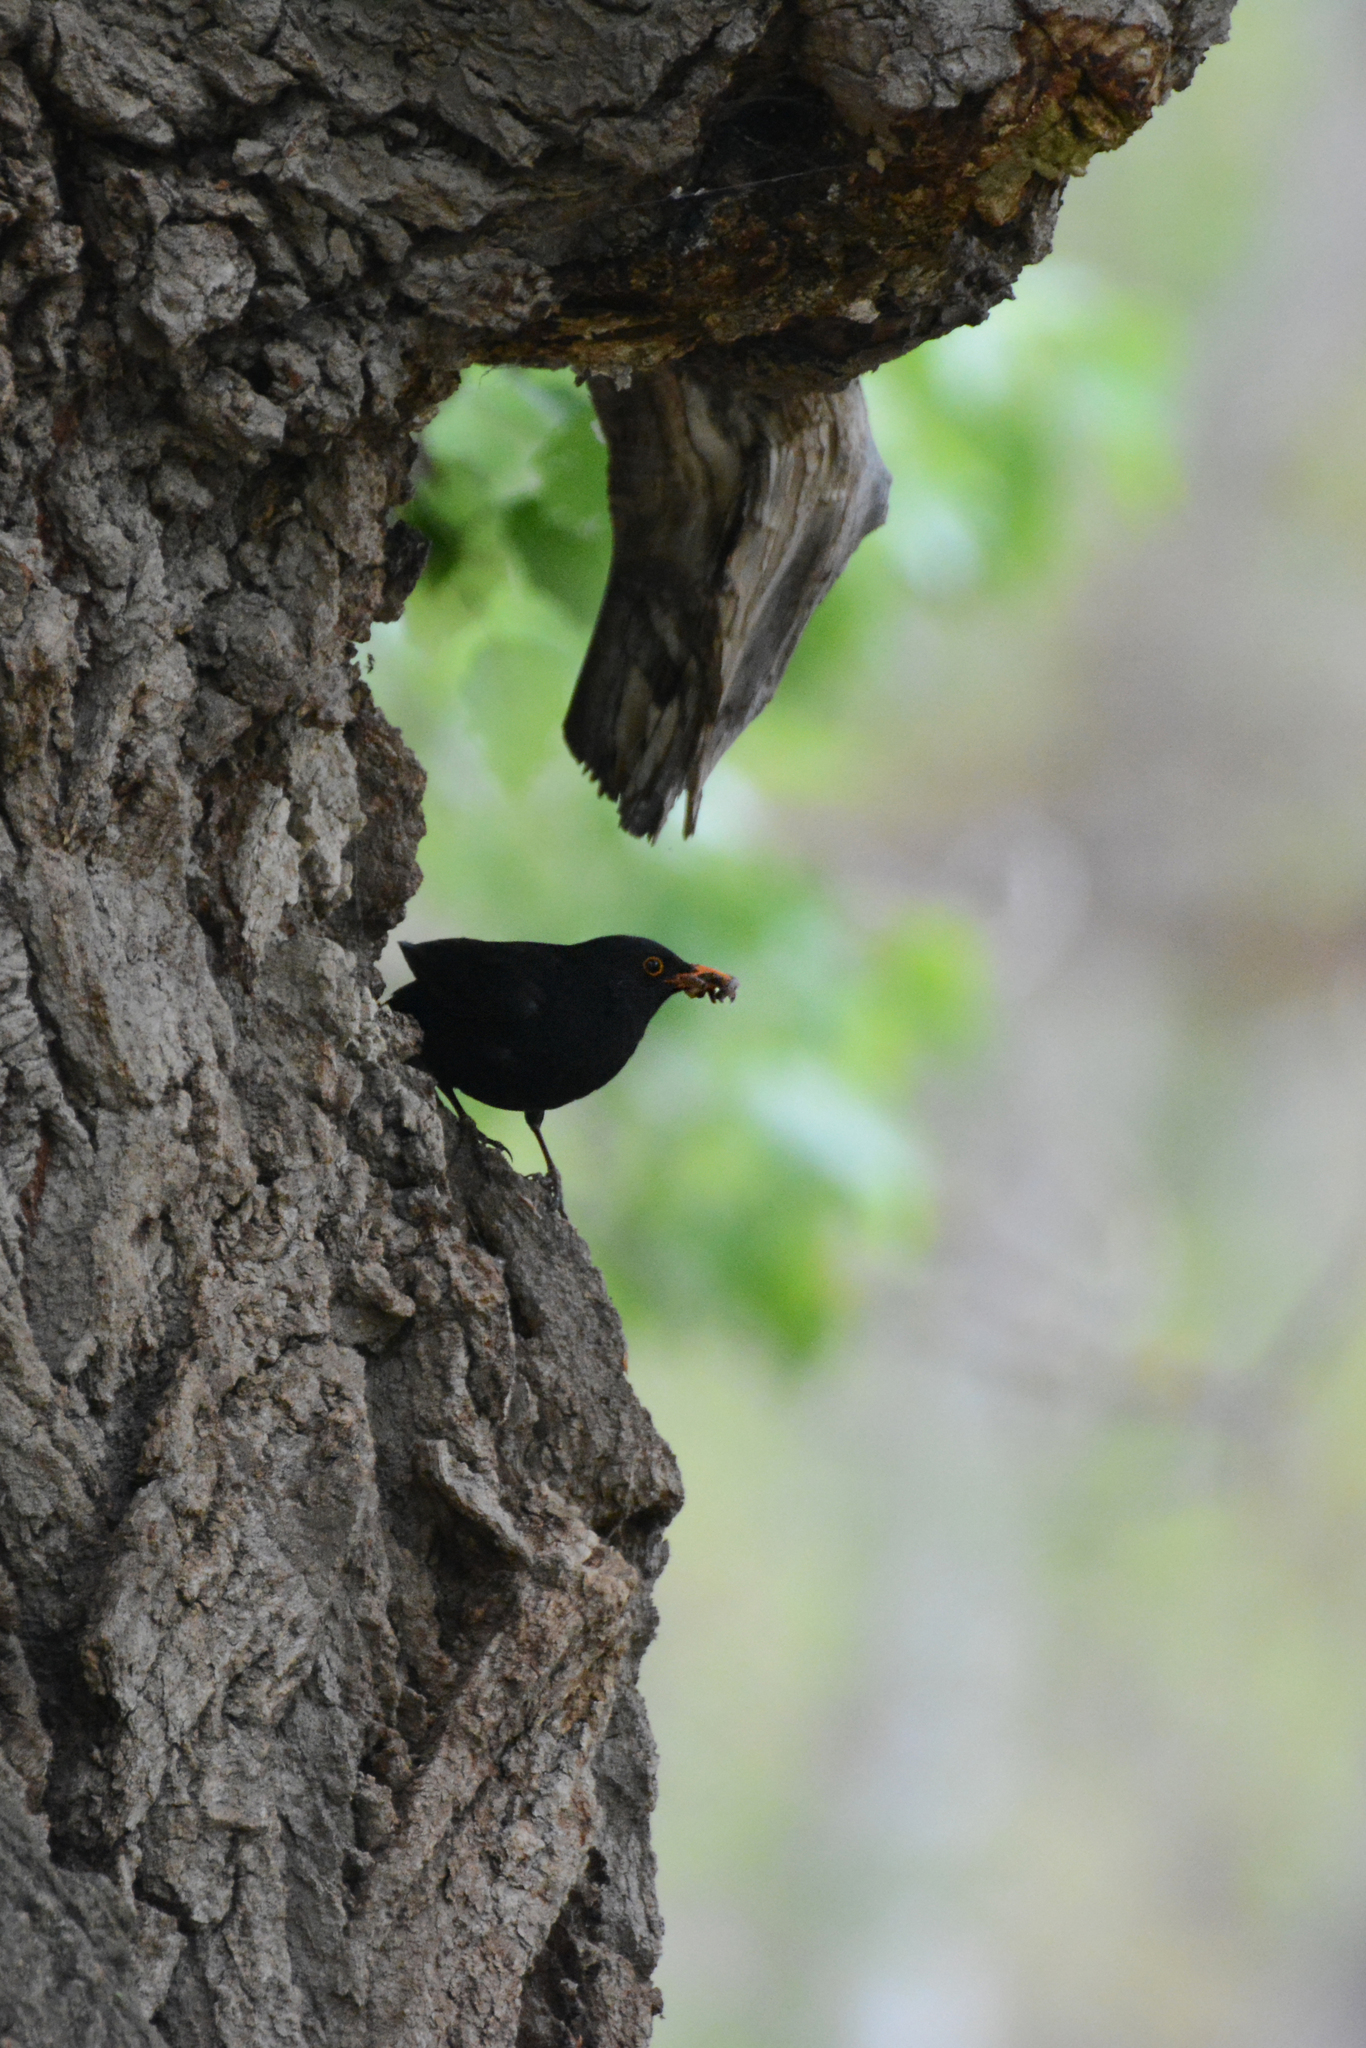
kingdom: Animalia
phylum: Chordata
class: Aves
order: Passeriformes
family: Turdidae
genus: Turdus
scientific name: Turdus merula
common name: Common blackbird
